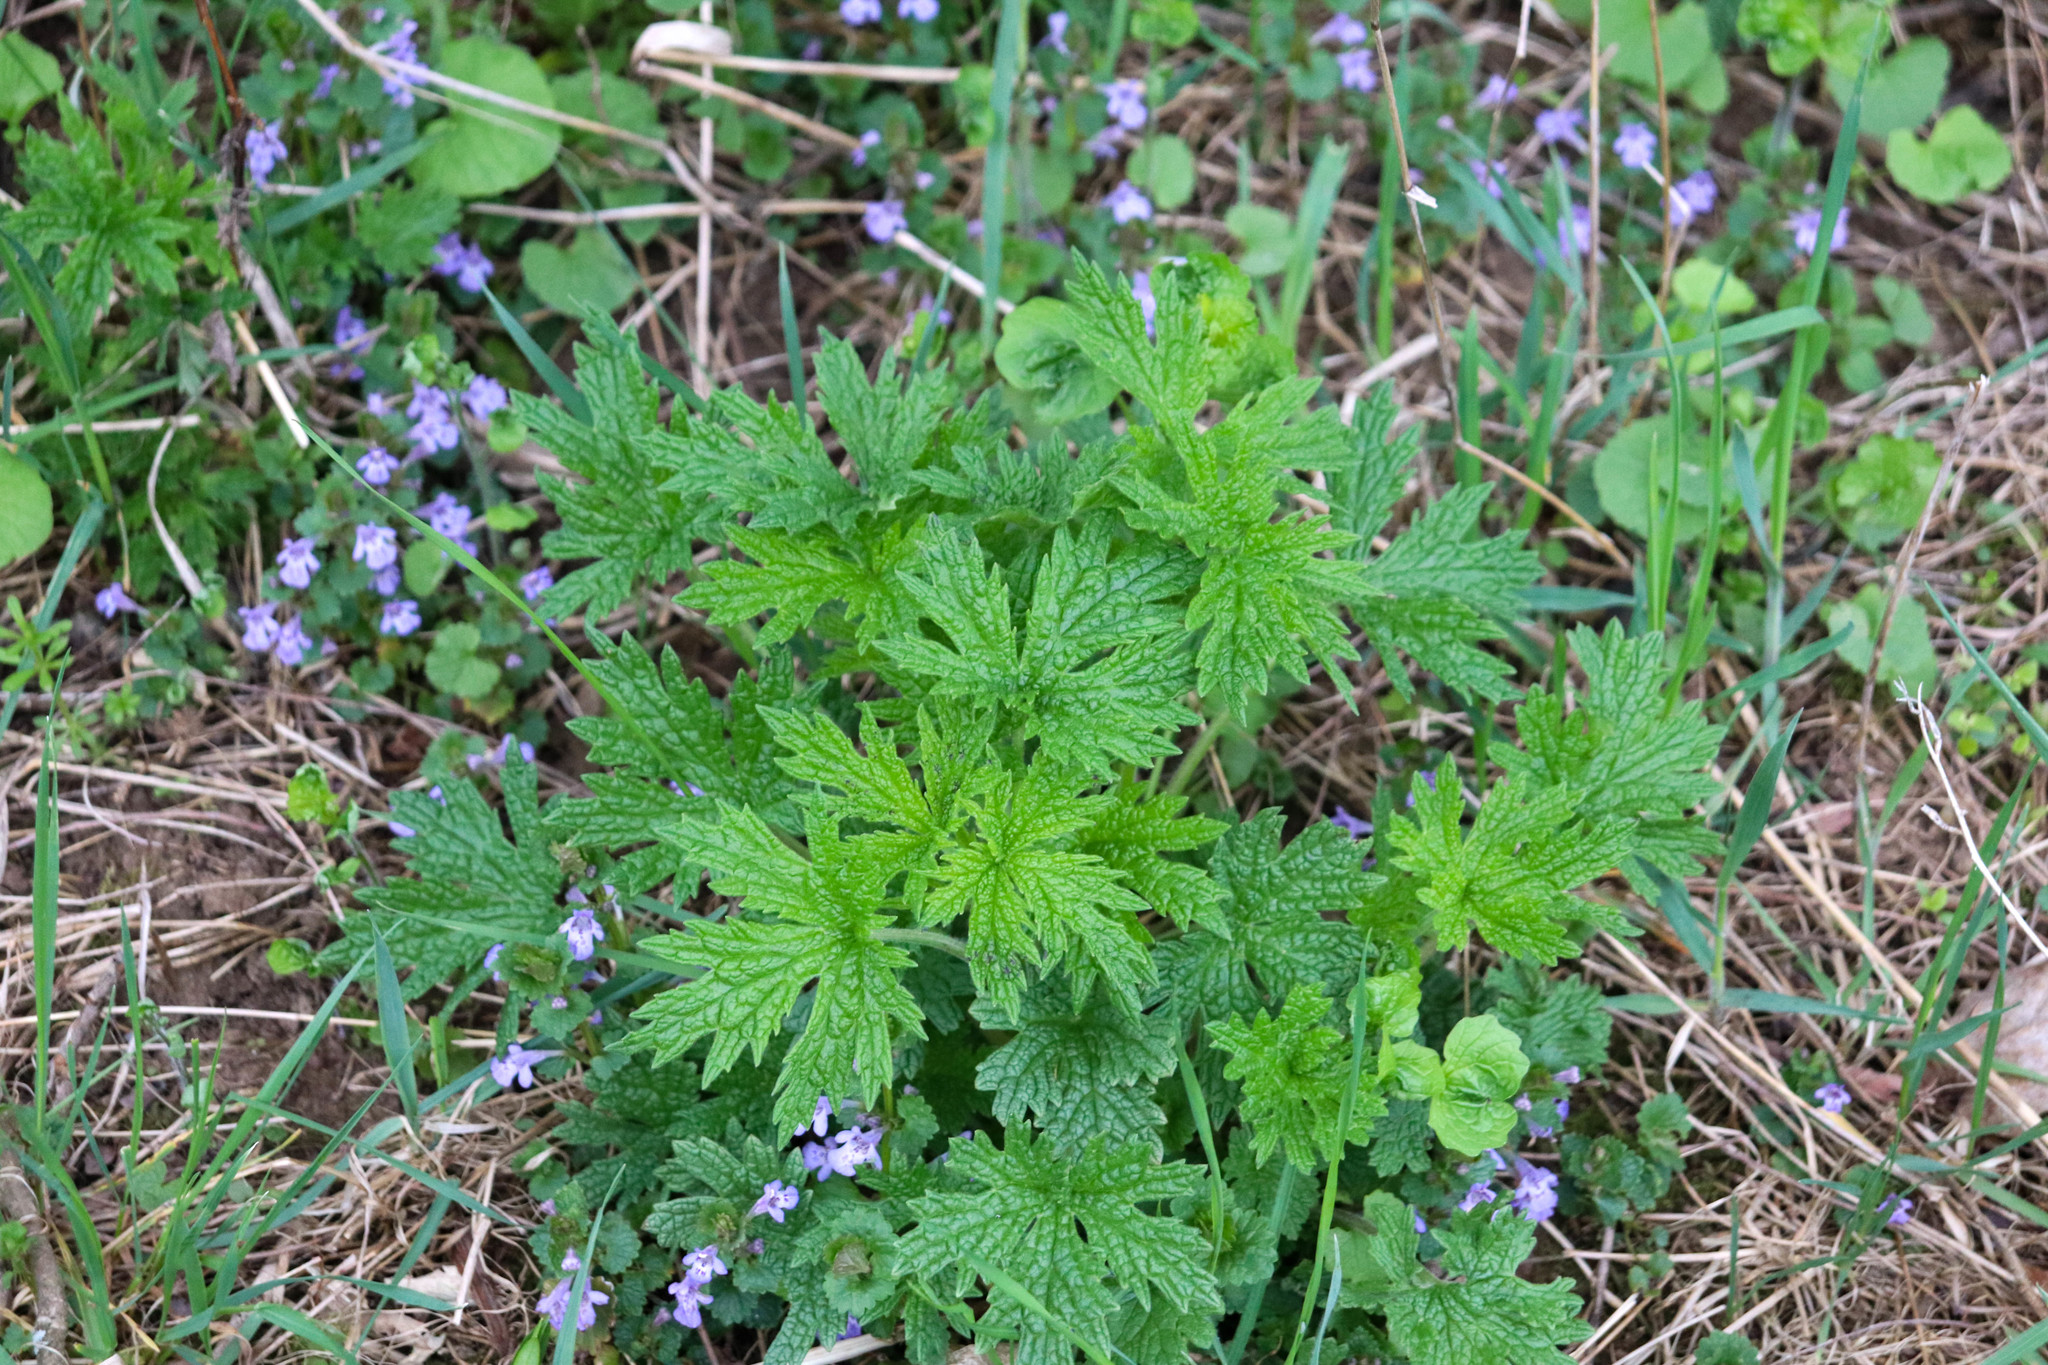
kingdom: Plantae
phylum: Tracheophyta
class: Magnoliopsida
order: Lamiales
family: Lamiaceae
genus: Leonurus
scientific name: Leonurus cardiaca
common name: Motherwort
